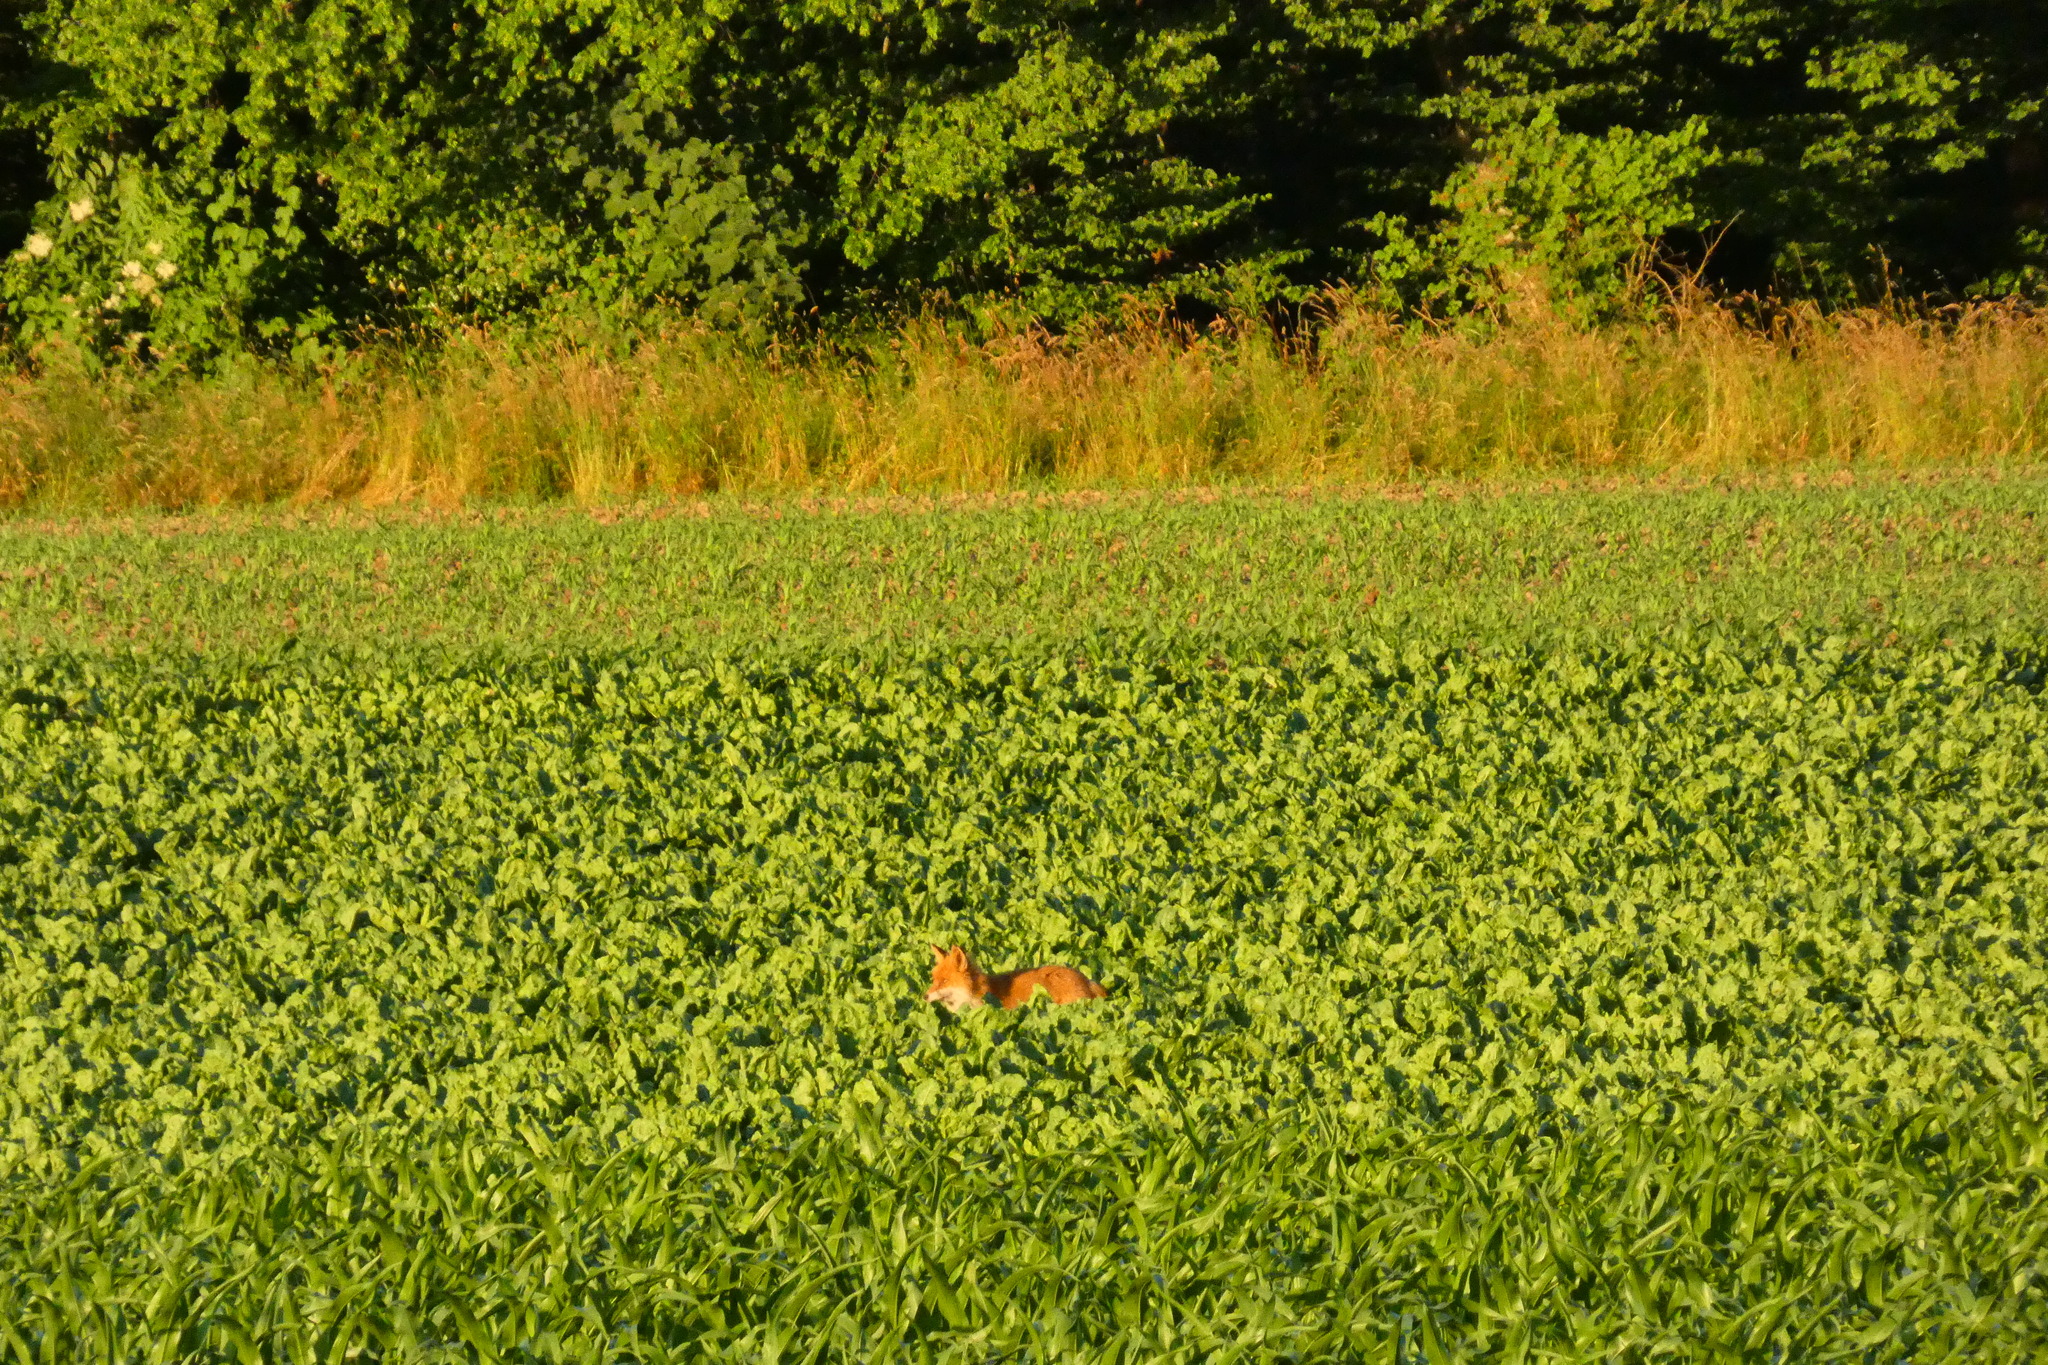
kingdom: Animalia
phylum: Chordata
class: Mammalia
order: Carnivora
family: Canidae
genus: Vulpes
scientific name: Vulpes vulpes
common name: Red fox
